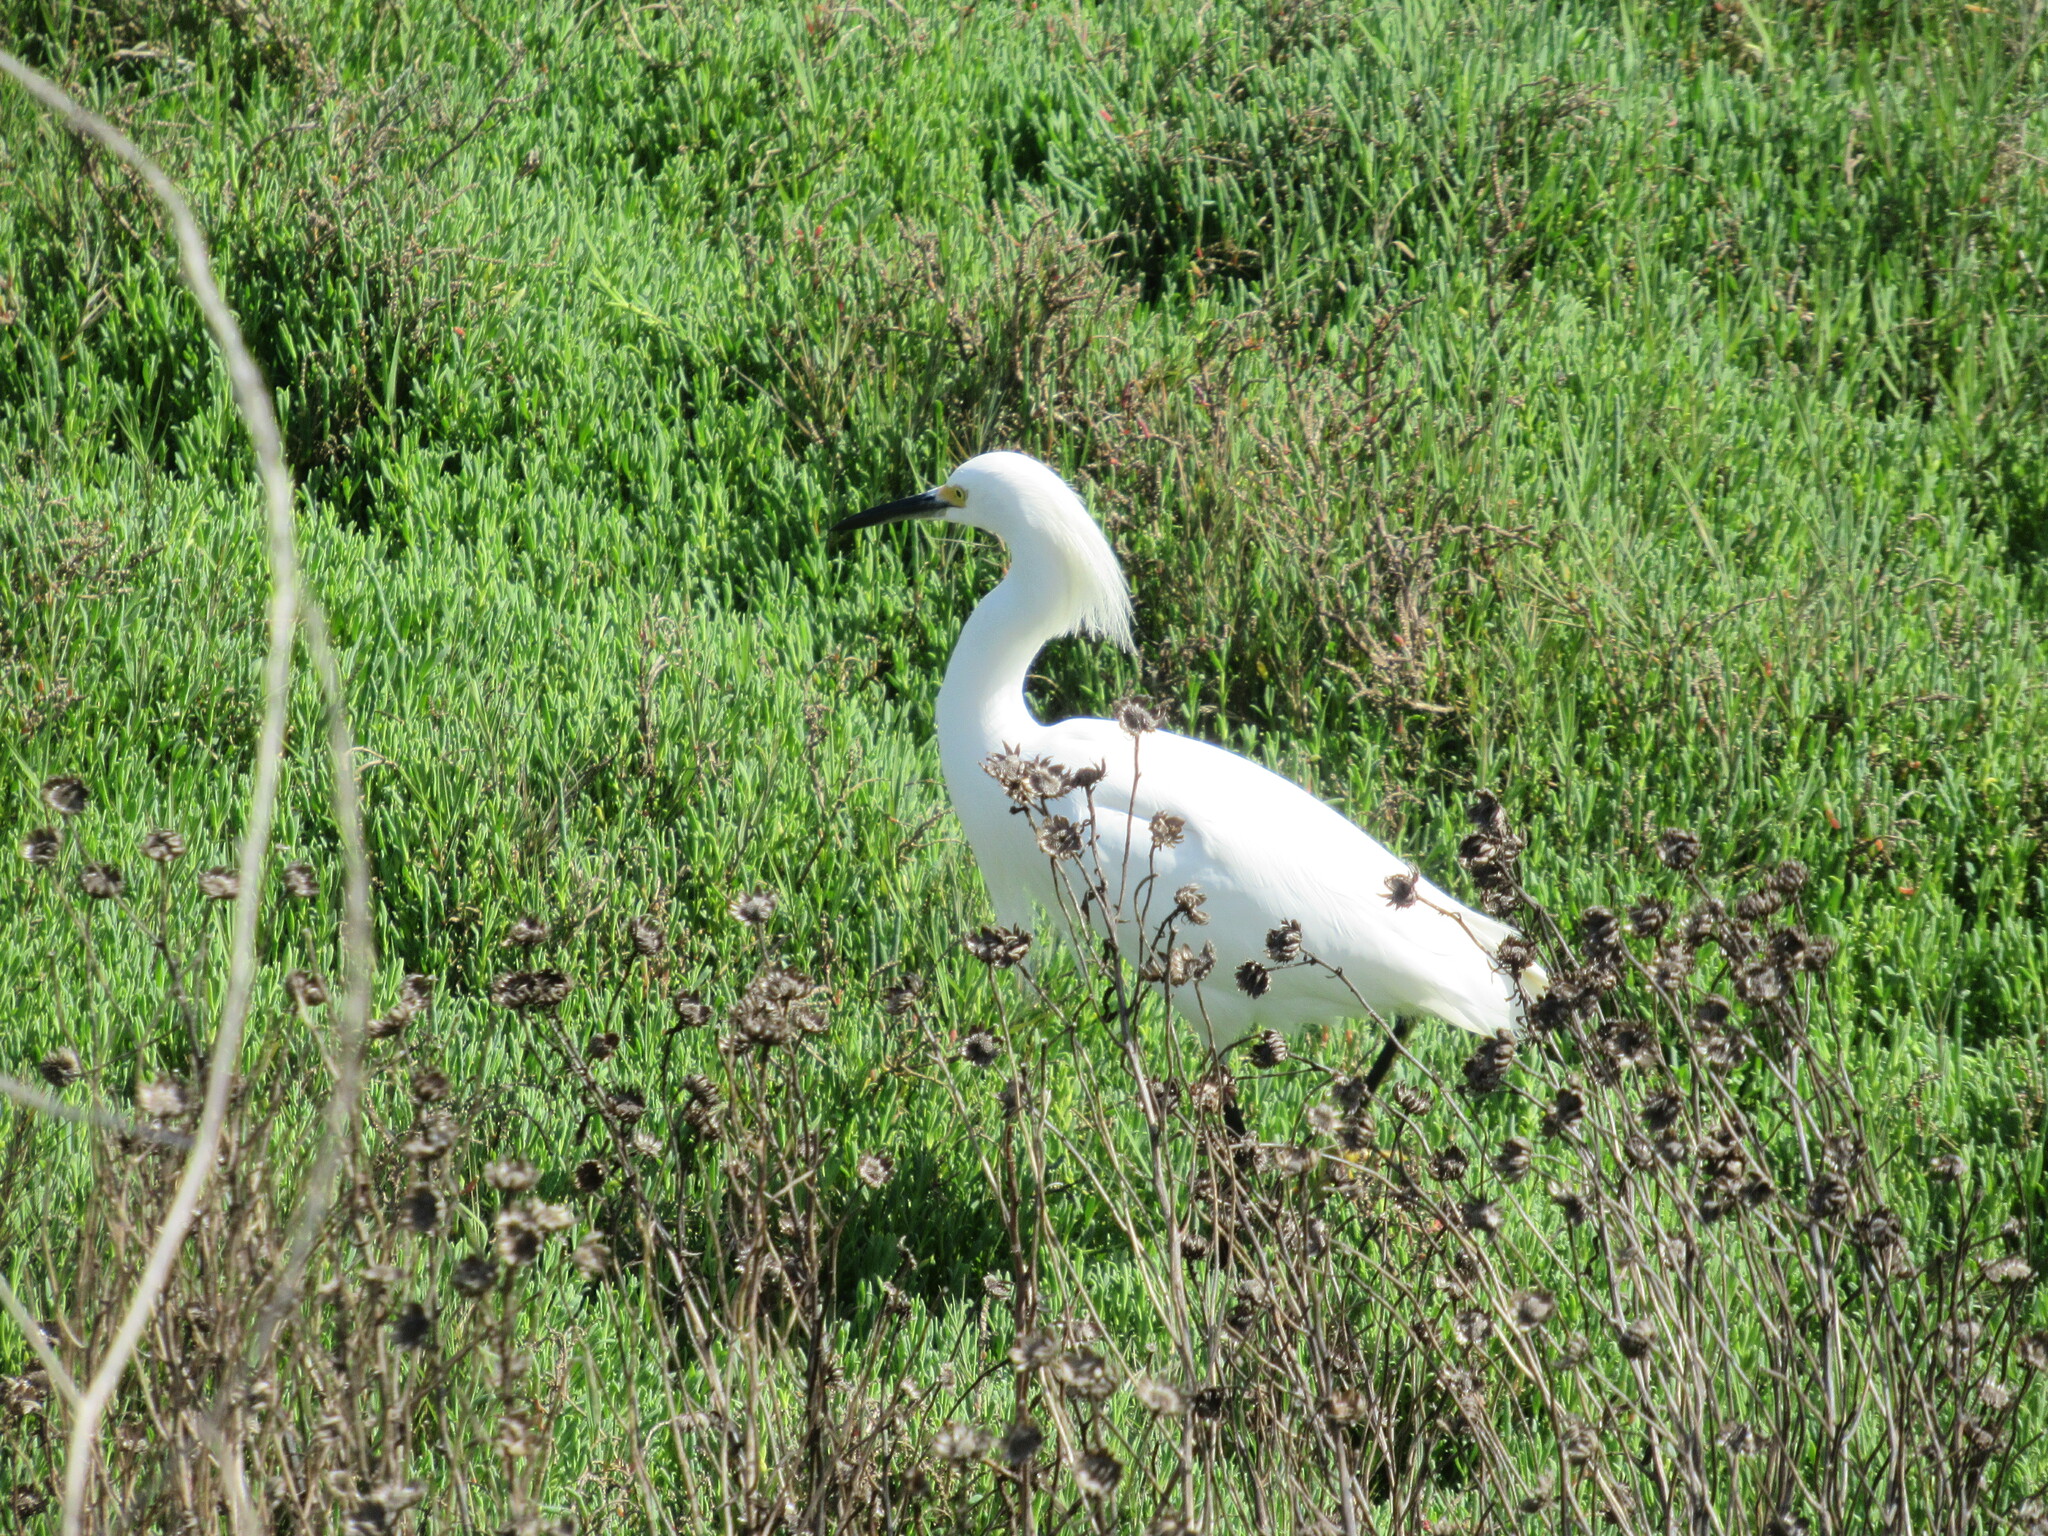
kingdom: Animalia
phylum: Chordata
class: Aves
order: Pelecaniformes
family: Ardeidae
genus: Egretta
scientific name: Egretta thula
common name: Snowy egret
